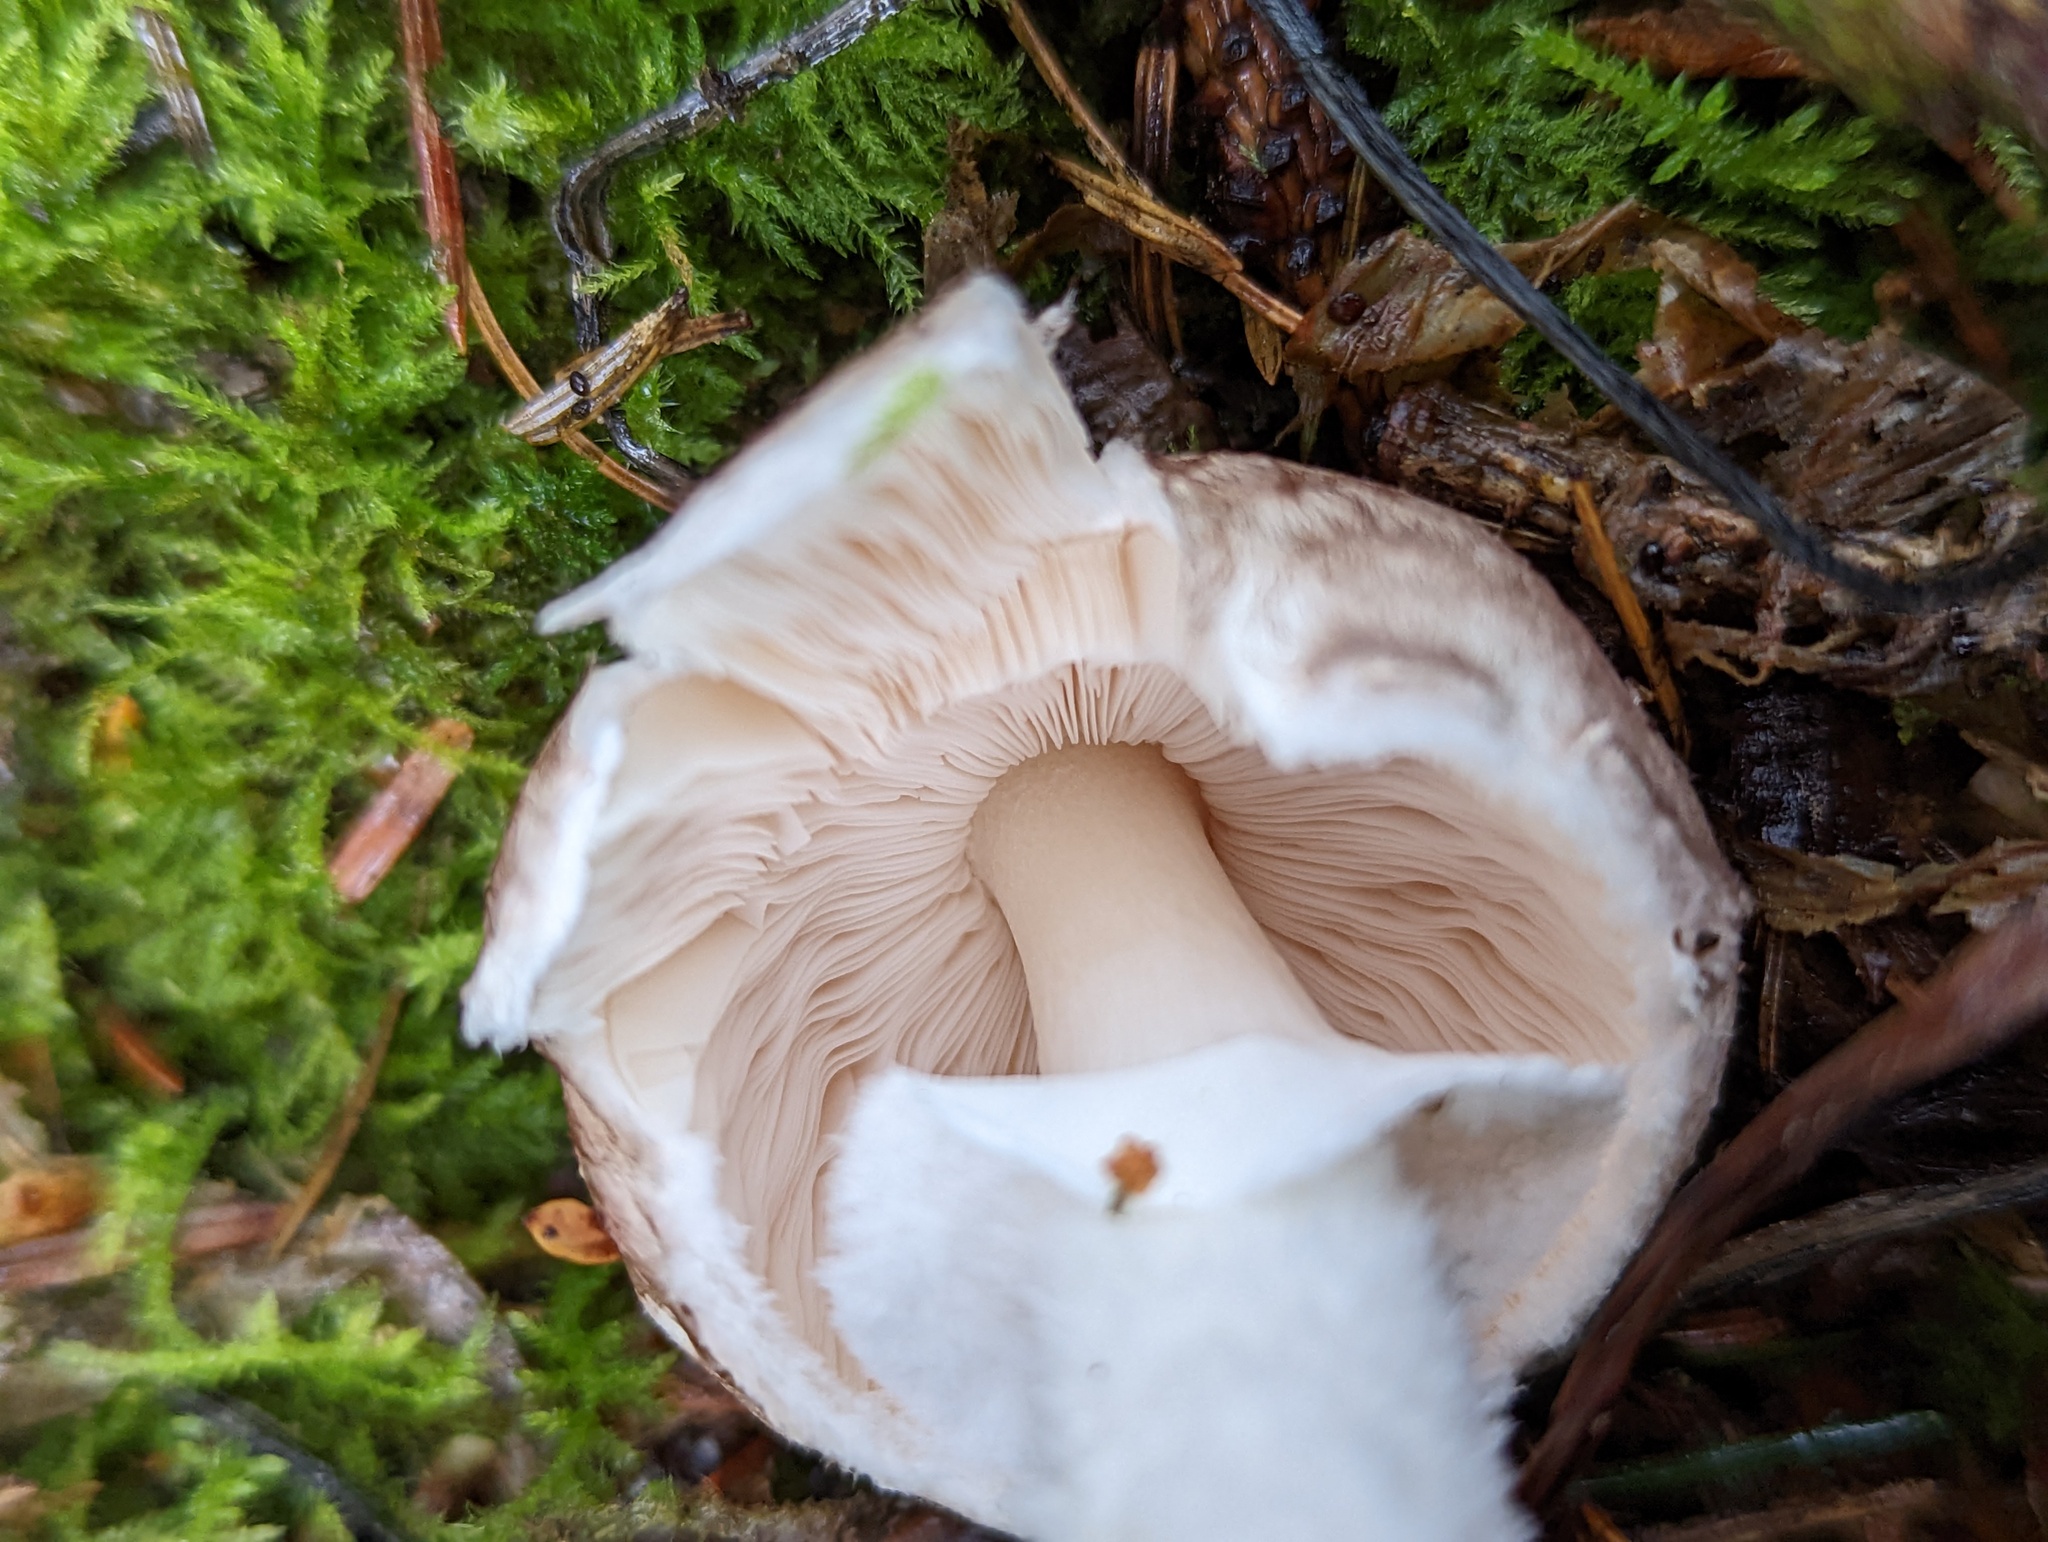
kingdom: Fungi
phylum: Basidiomycota
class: Agaricomycetes
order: Agaricales
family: Agaricaceae
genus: Agaricus
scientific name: Agaricus subrutilescens
